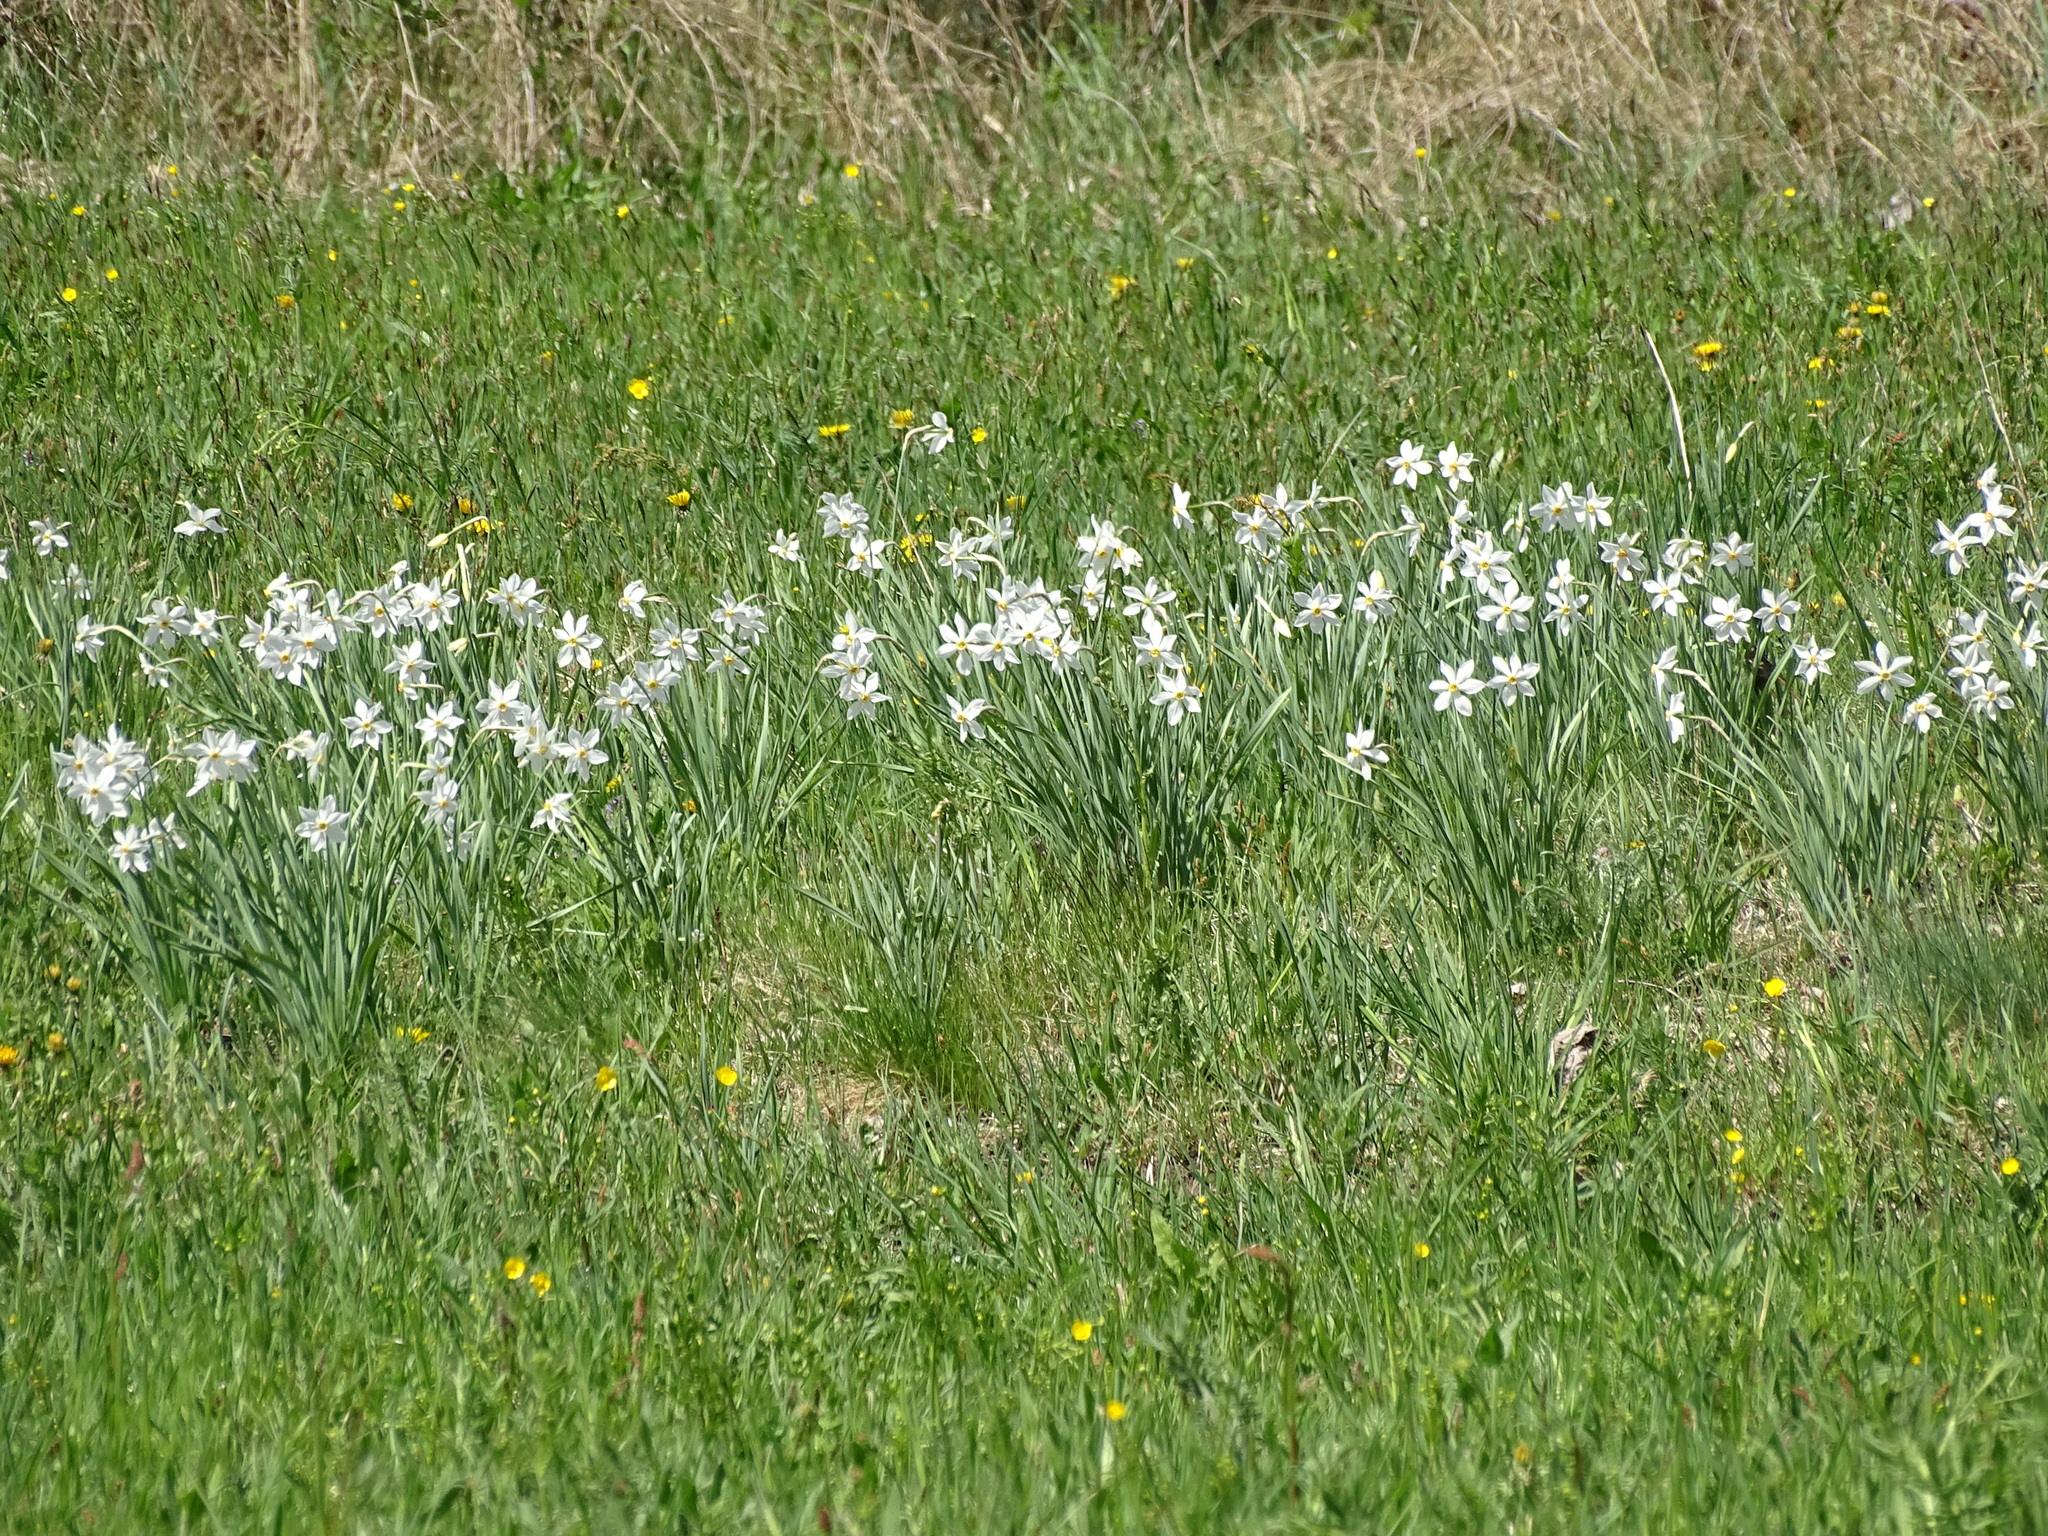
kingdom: Plantae
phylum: Tracheophyta
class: Liliopsida
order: Asparagales
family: Amaryllidaceae
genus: Narcissus
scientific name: Narcissus poeticus
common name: Pheasant's-eye daffodil
